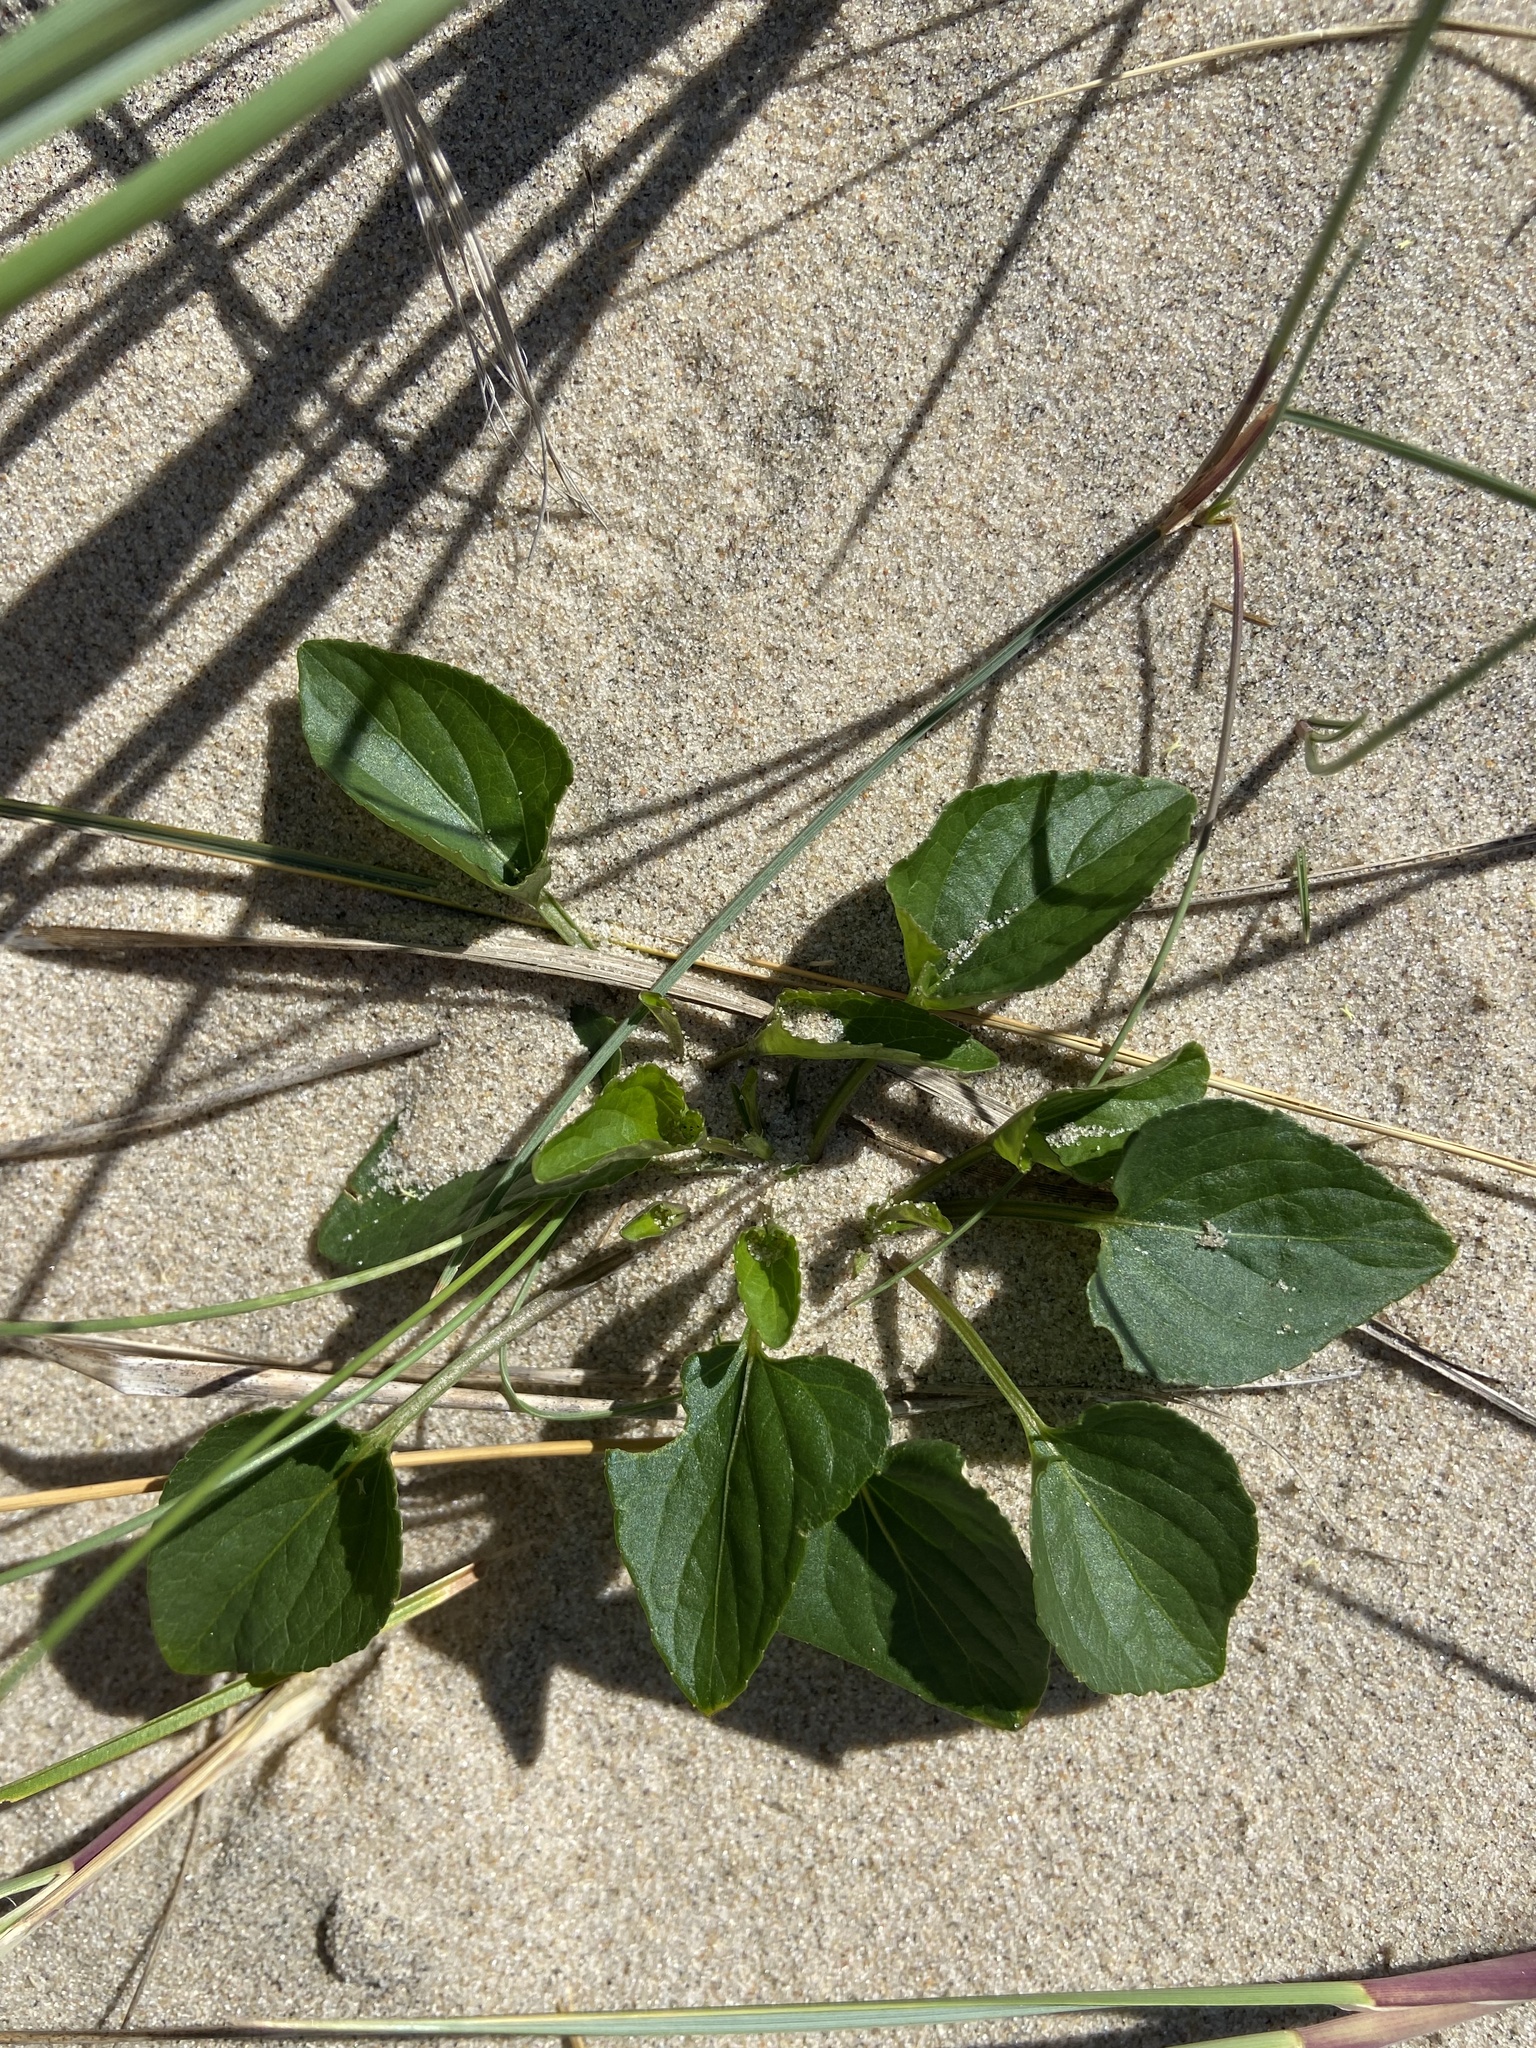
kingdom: Plantae
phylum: Tracheophyta
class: Magnoliopsida
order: Malpighiales
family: Violaceae
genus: Viola
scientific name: Viola canina
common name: Heath dog-violet
